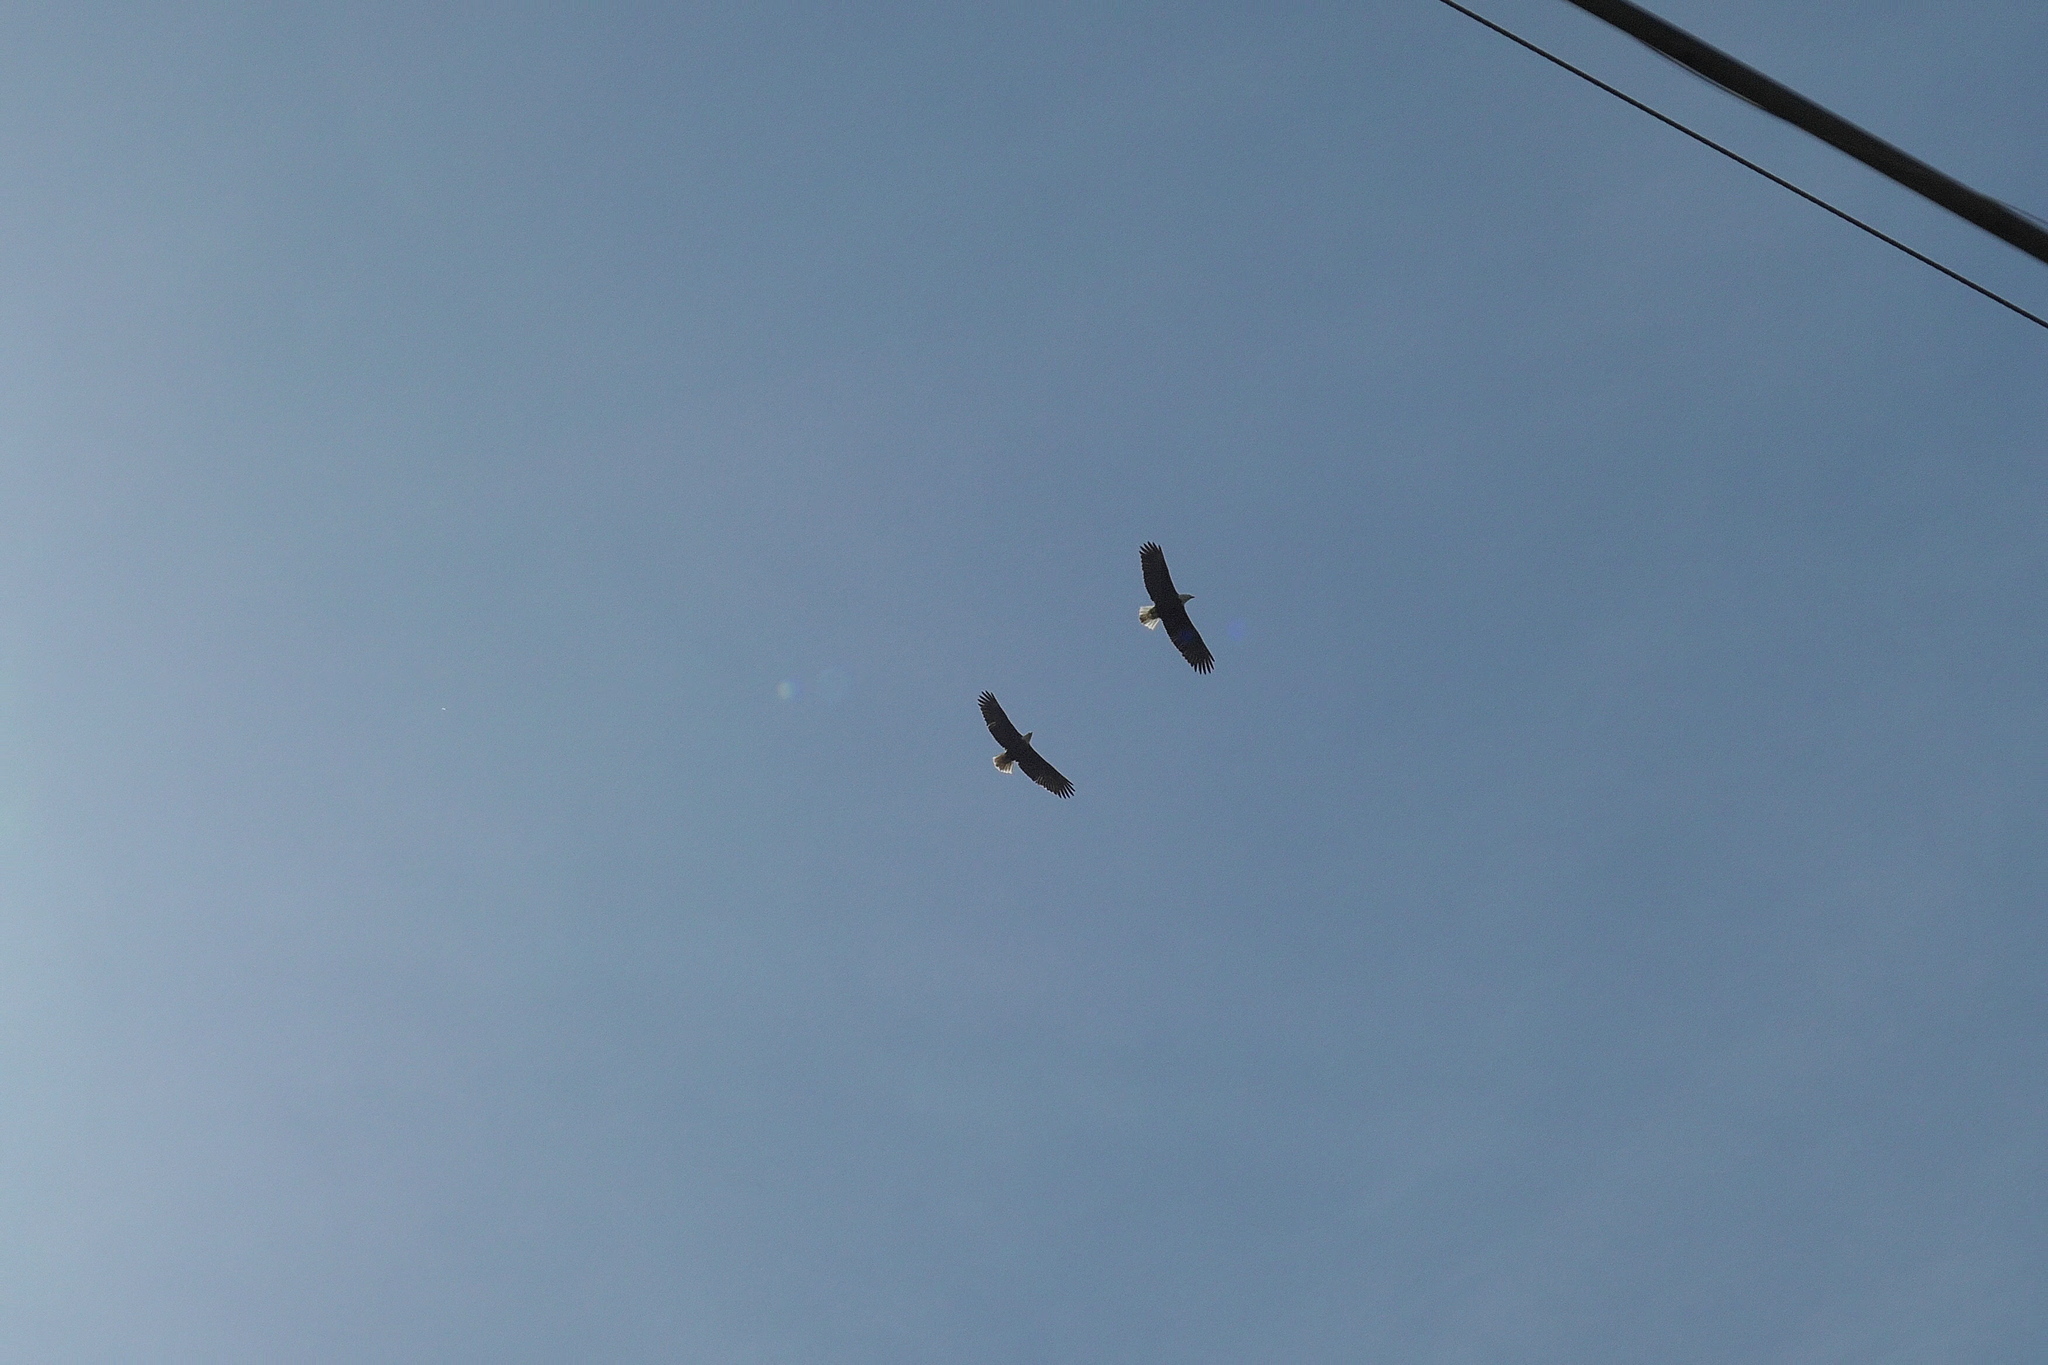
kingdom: Animalia
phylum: Chordata
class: Aves
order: Accipitriformes
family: Accipitridae
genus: Haliaeetus
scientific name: Haliaeetus leucocephalus
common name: Bald eagle
